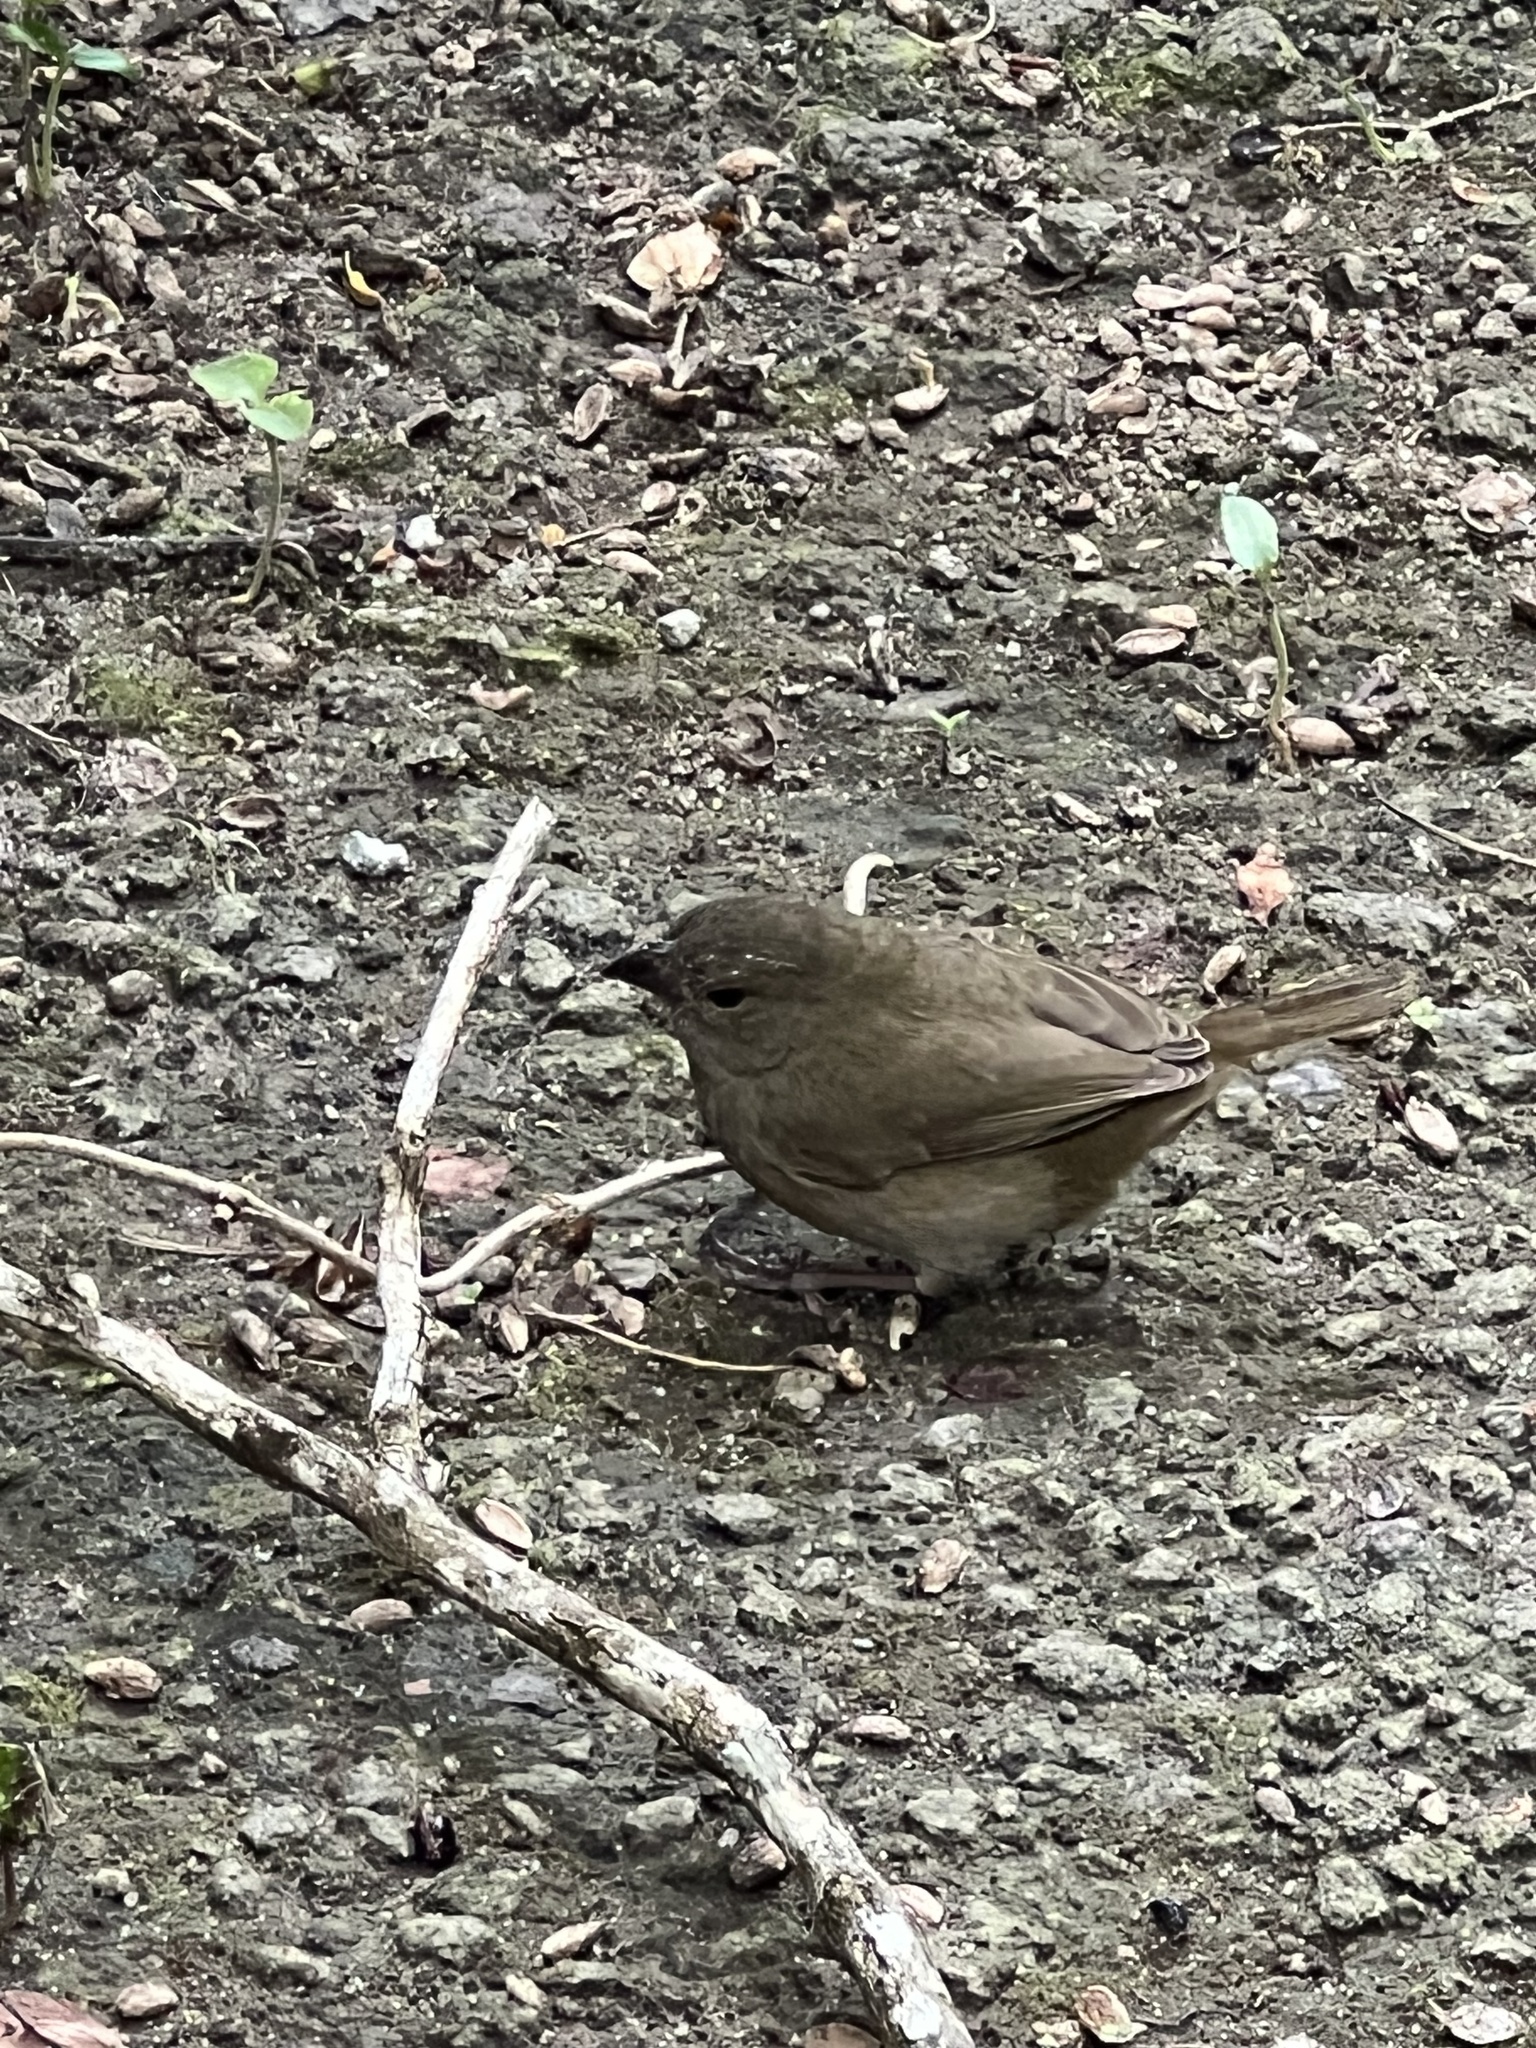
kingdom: Animalia
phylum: Chordata
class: Aves
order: Passeriformes
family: Thraupidae
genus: Melanospiza
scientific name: Melanospiza bicolor
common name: Black-faced grassquit
